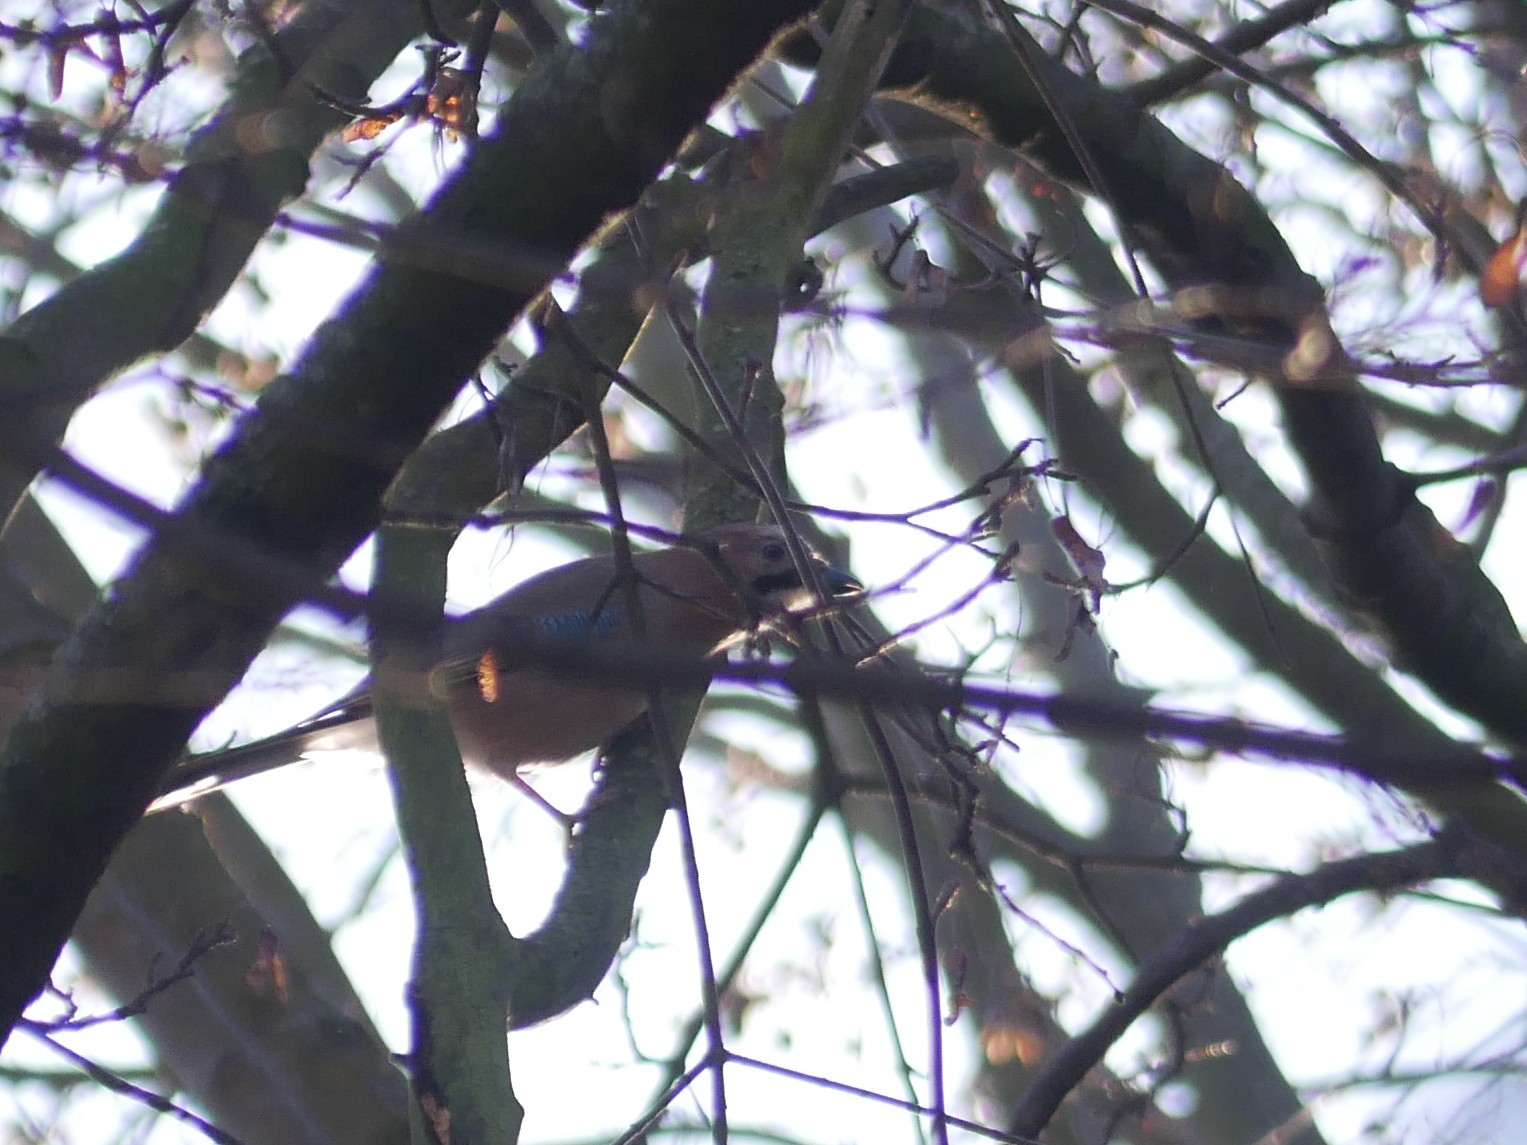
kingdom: Animalia
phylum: Chordata
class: Aves
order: Passeriformes
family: Corvidae
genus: Garrulus
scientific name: Garrulus glandarius
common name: Eurasian jay
